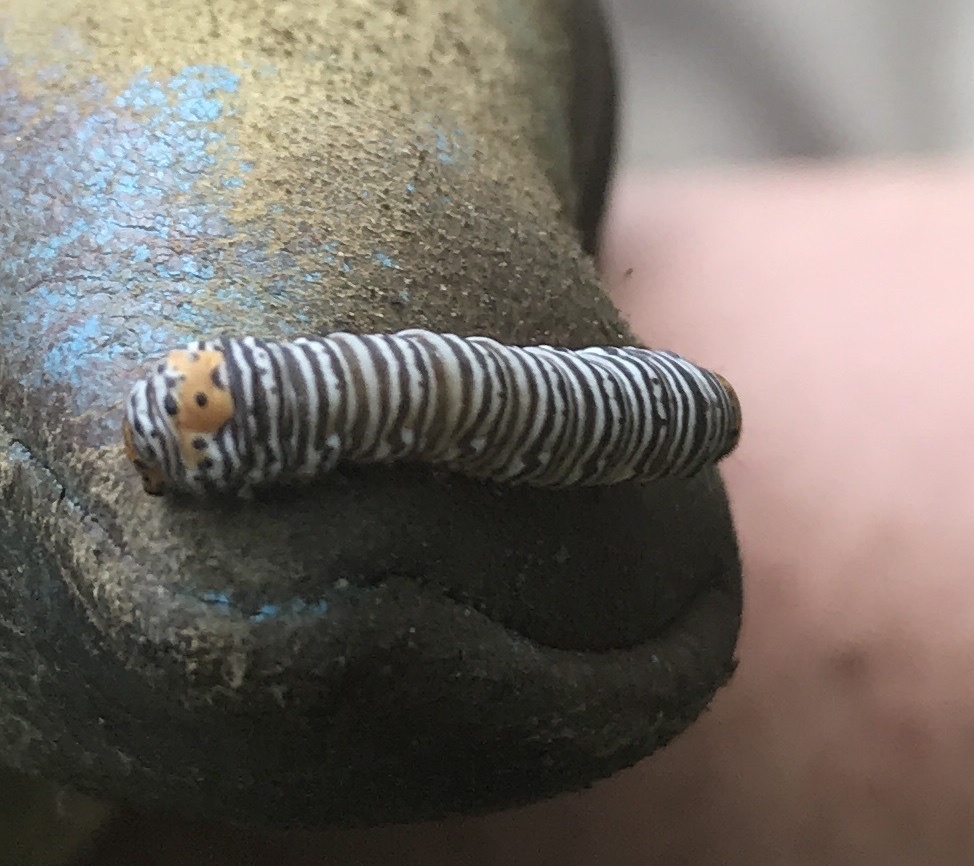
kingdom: Animalia
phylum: Arthropoda
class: Insecta
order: Lepidoptera
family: Noctuidae
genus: Psychomorpha
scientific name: Psychomorpha epimenis
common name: Grapevine epimenis moth
